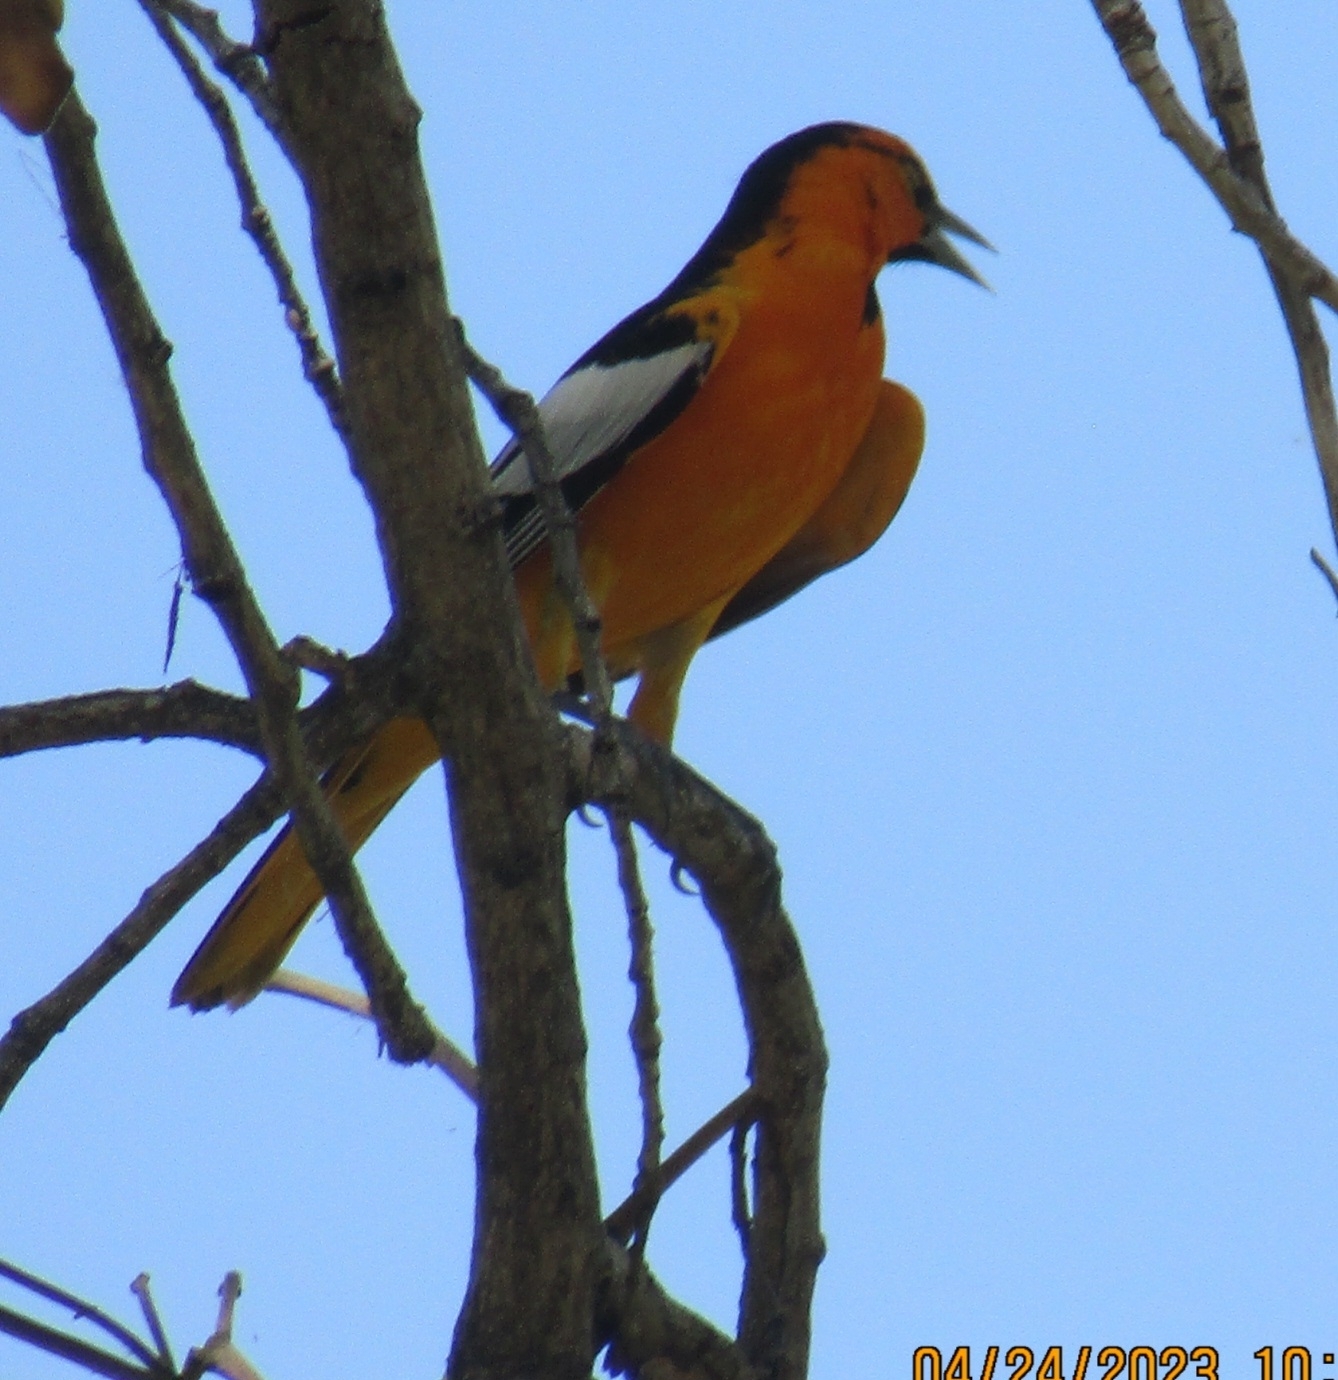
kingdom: Animalia
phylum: Chordata
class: Aves
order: Passeriformes
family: Icteridae
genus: Icterus
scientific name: Icterus bullockii
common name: Bullock's oriole
